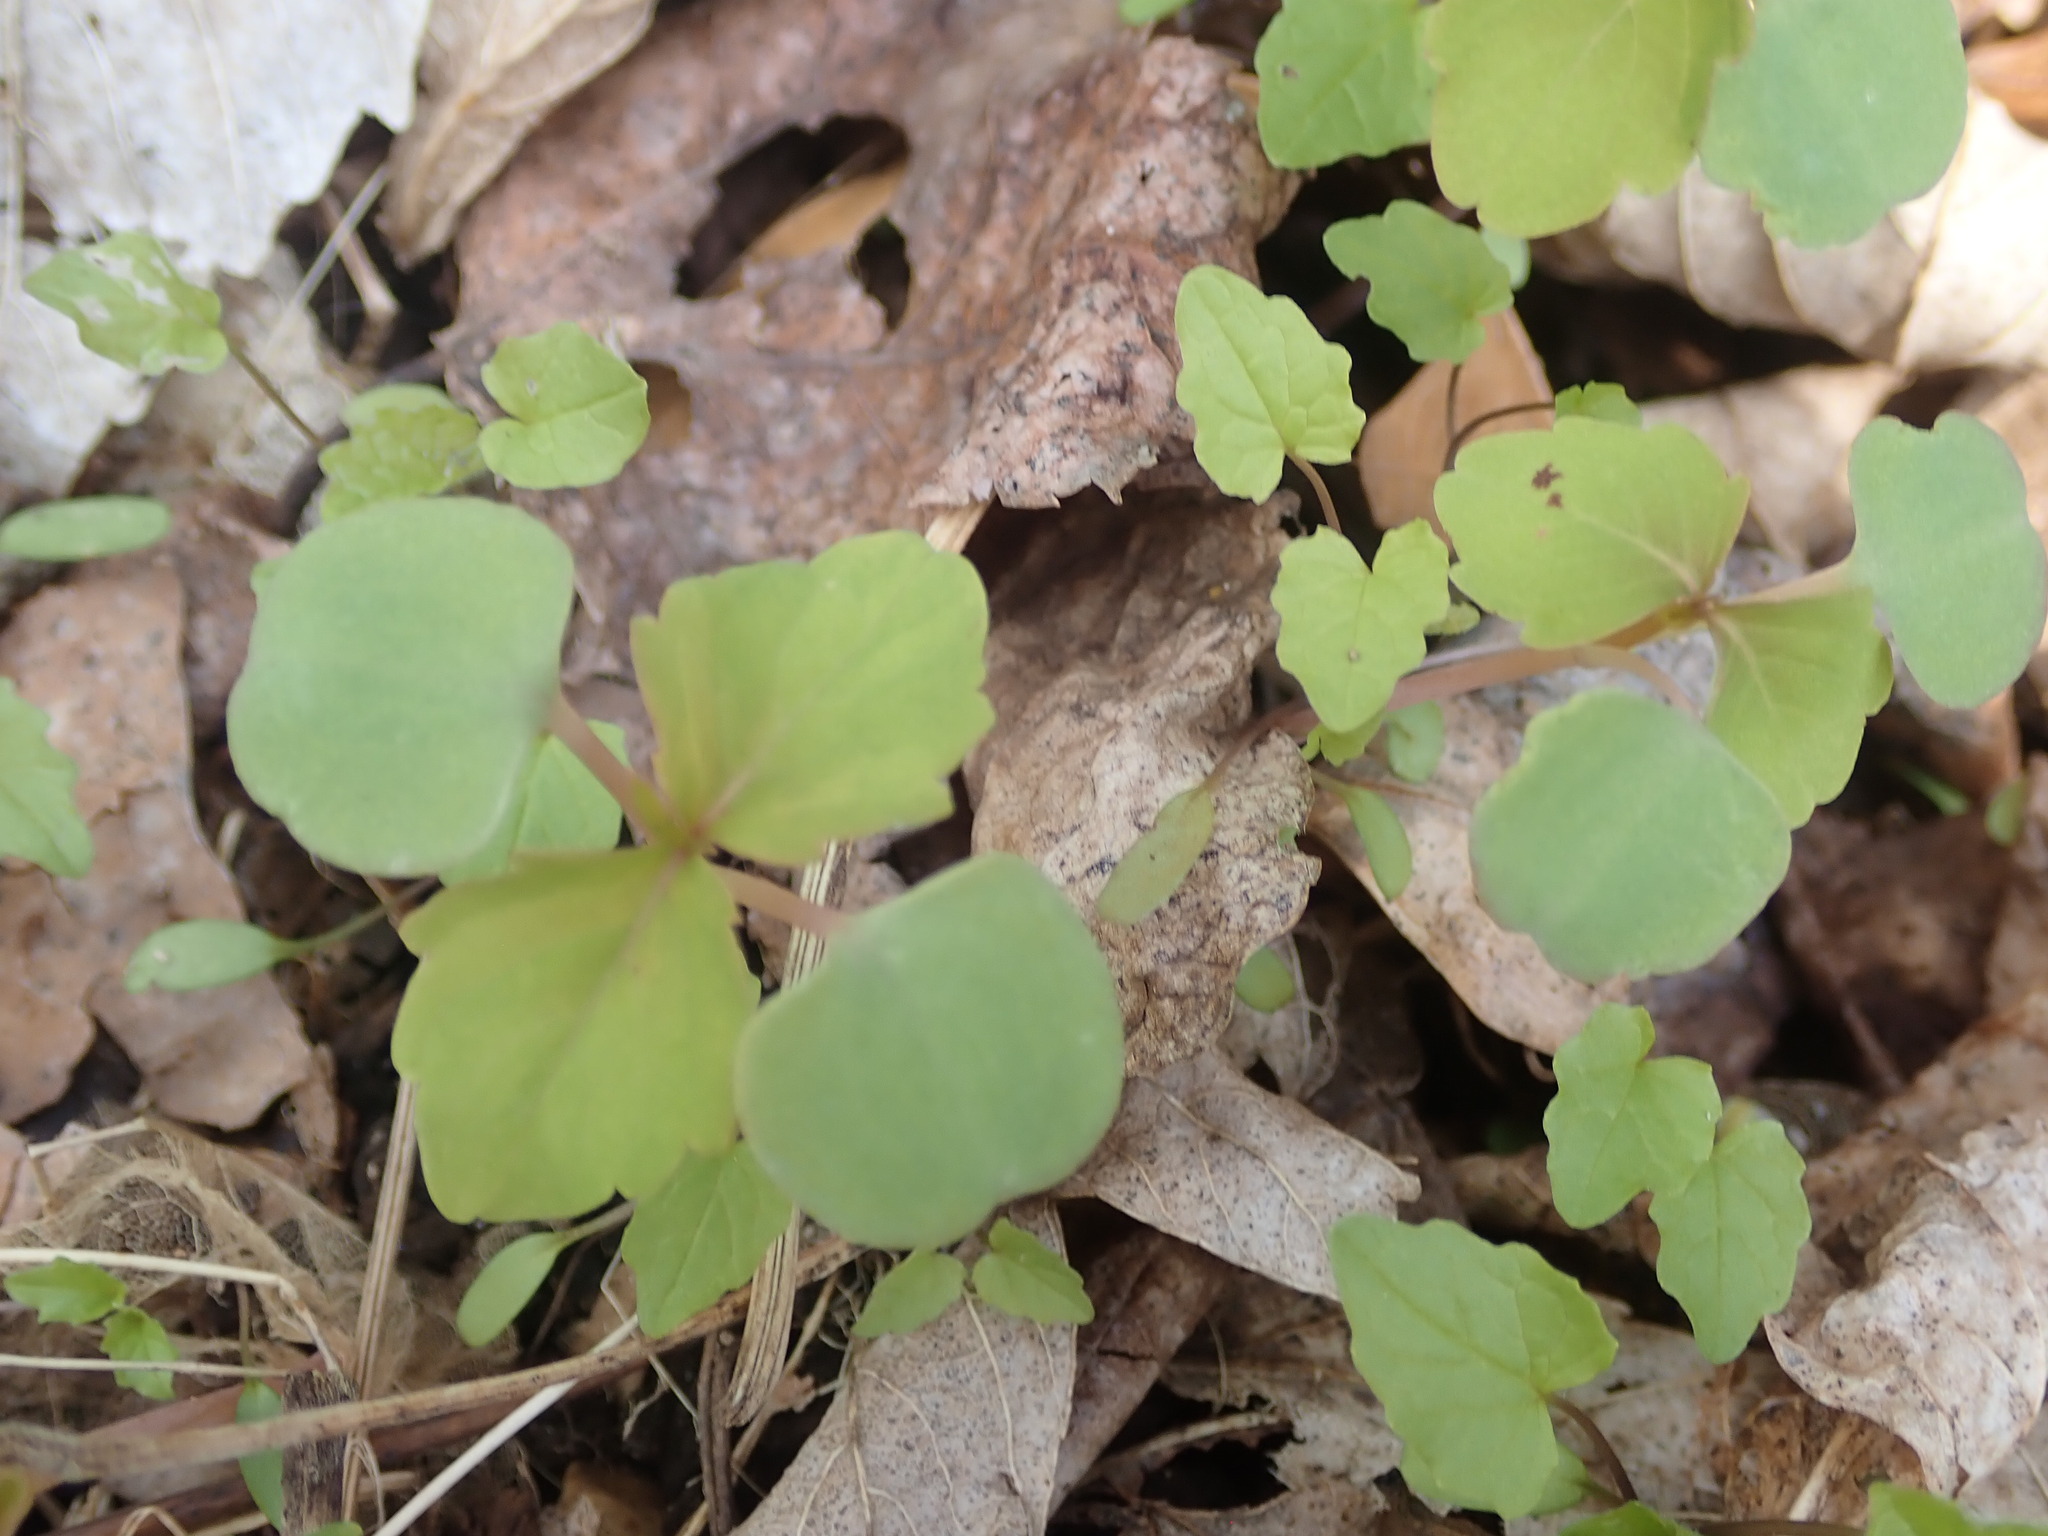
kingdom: Plantae
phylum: Tracheophyta
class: Magnoliopsida
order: Ericales
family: Balsaminaceae
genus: Impatiens
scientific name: Impatiens capensis
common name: Orange balsam
